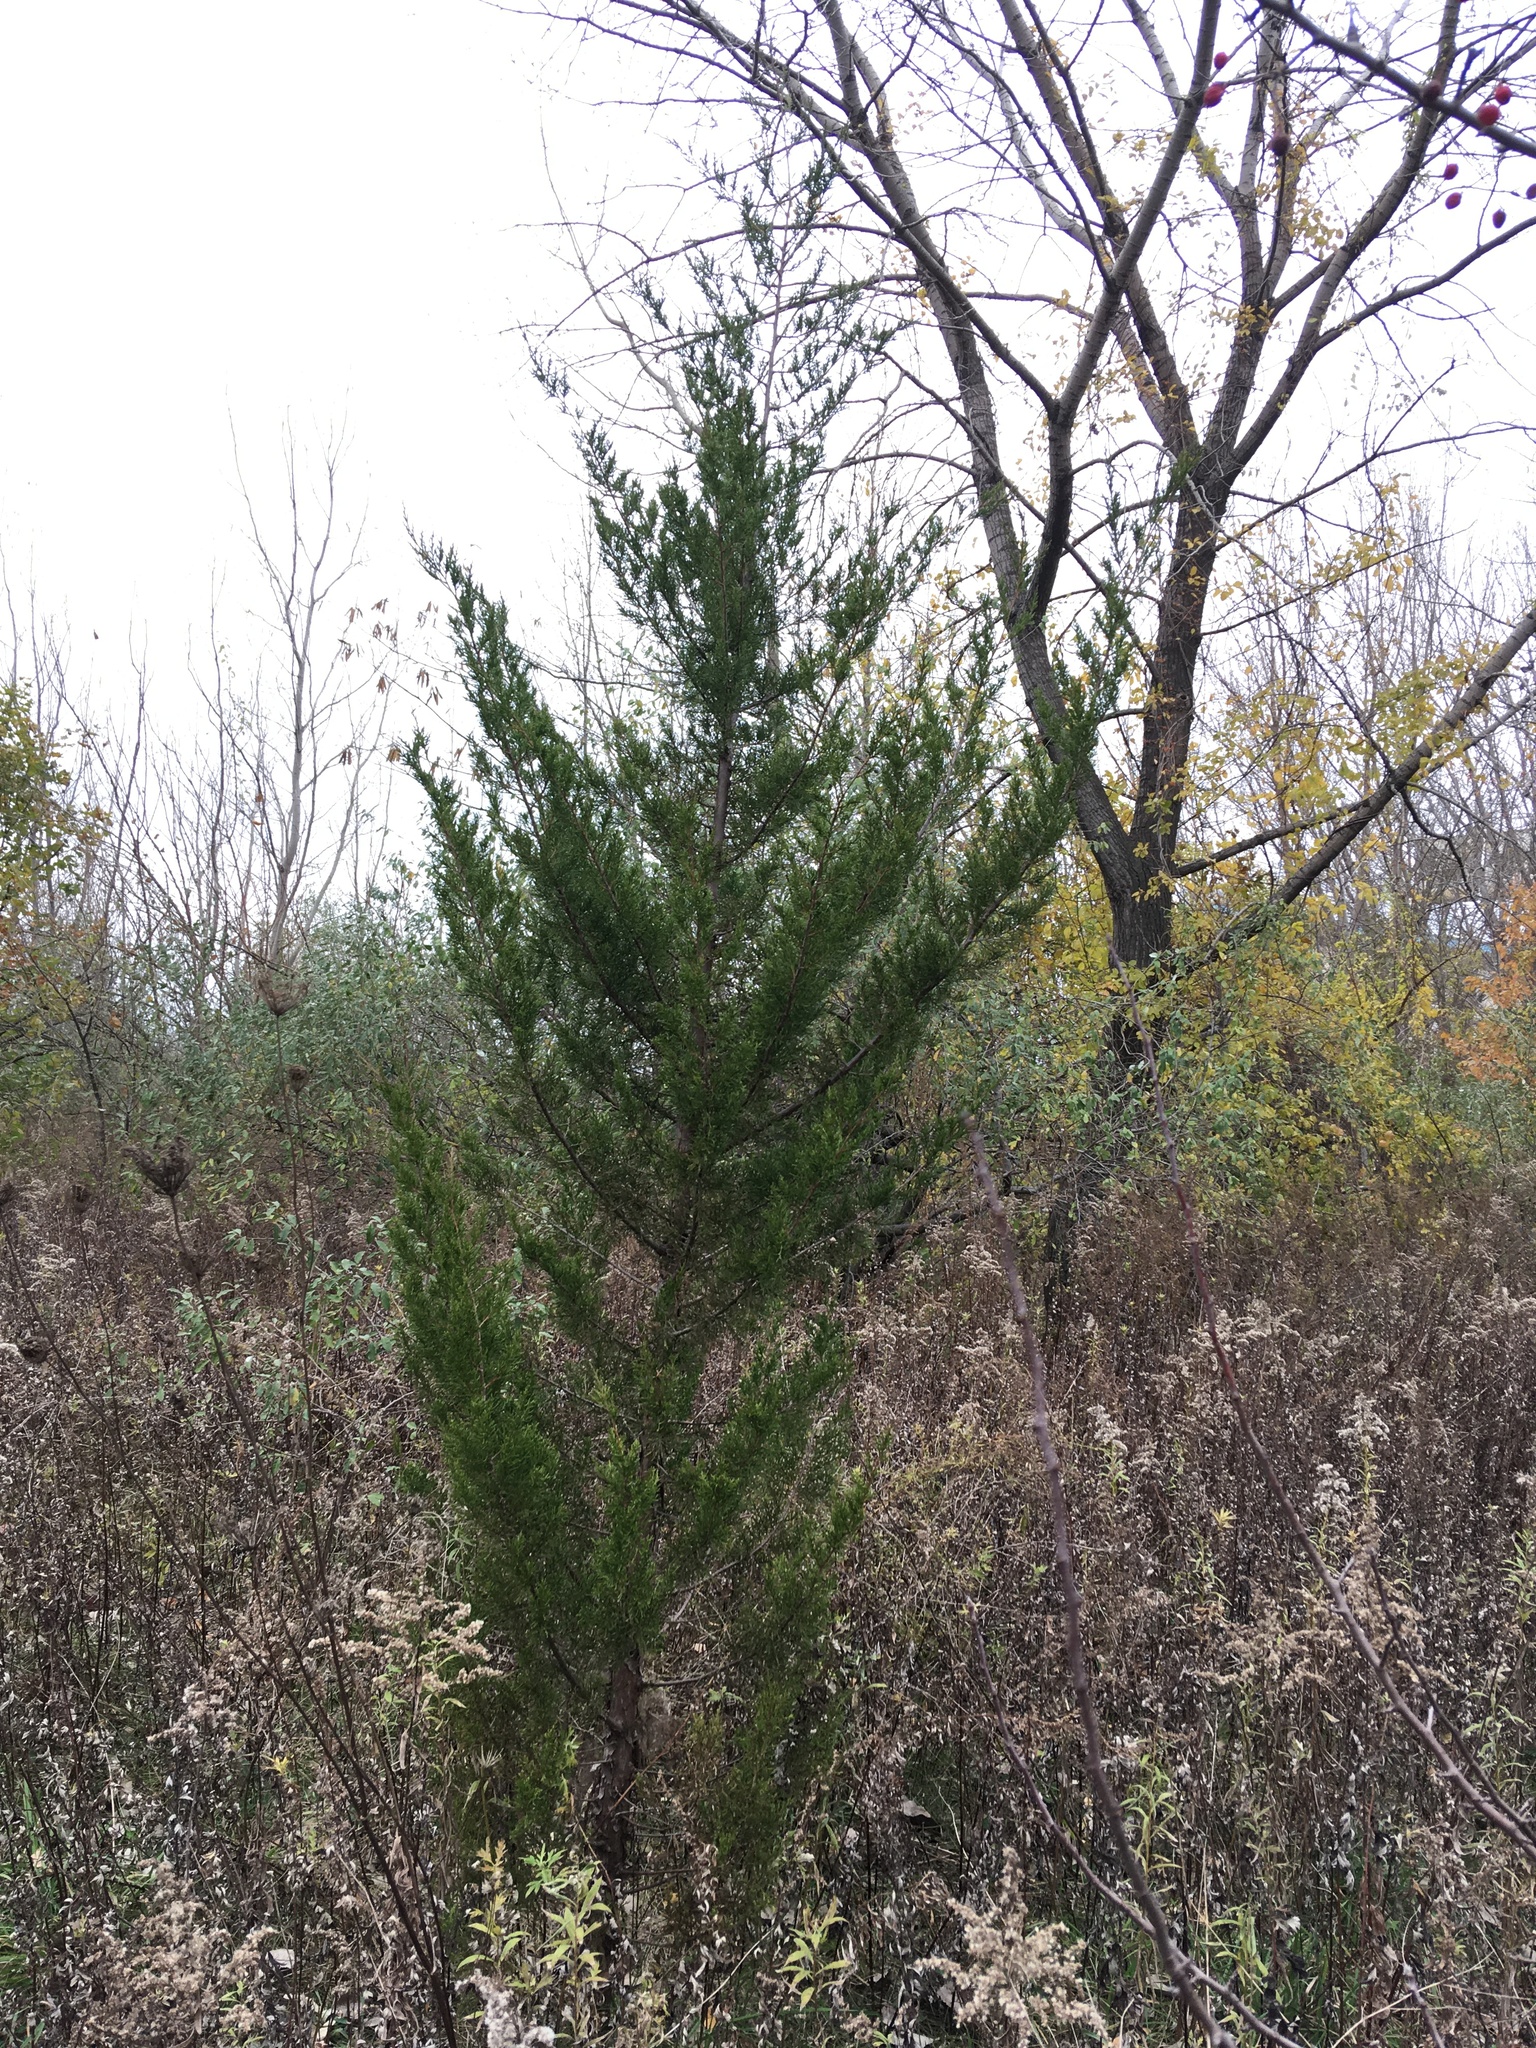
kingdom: Plantae
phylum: Tracheophyta
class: Pinopsida
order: Pinales
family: Cupressaceae
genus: Juniperus
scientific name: Juniperus virginiana
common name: Red juniper
